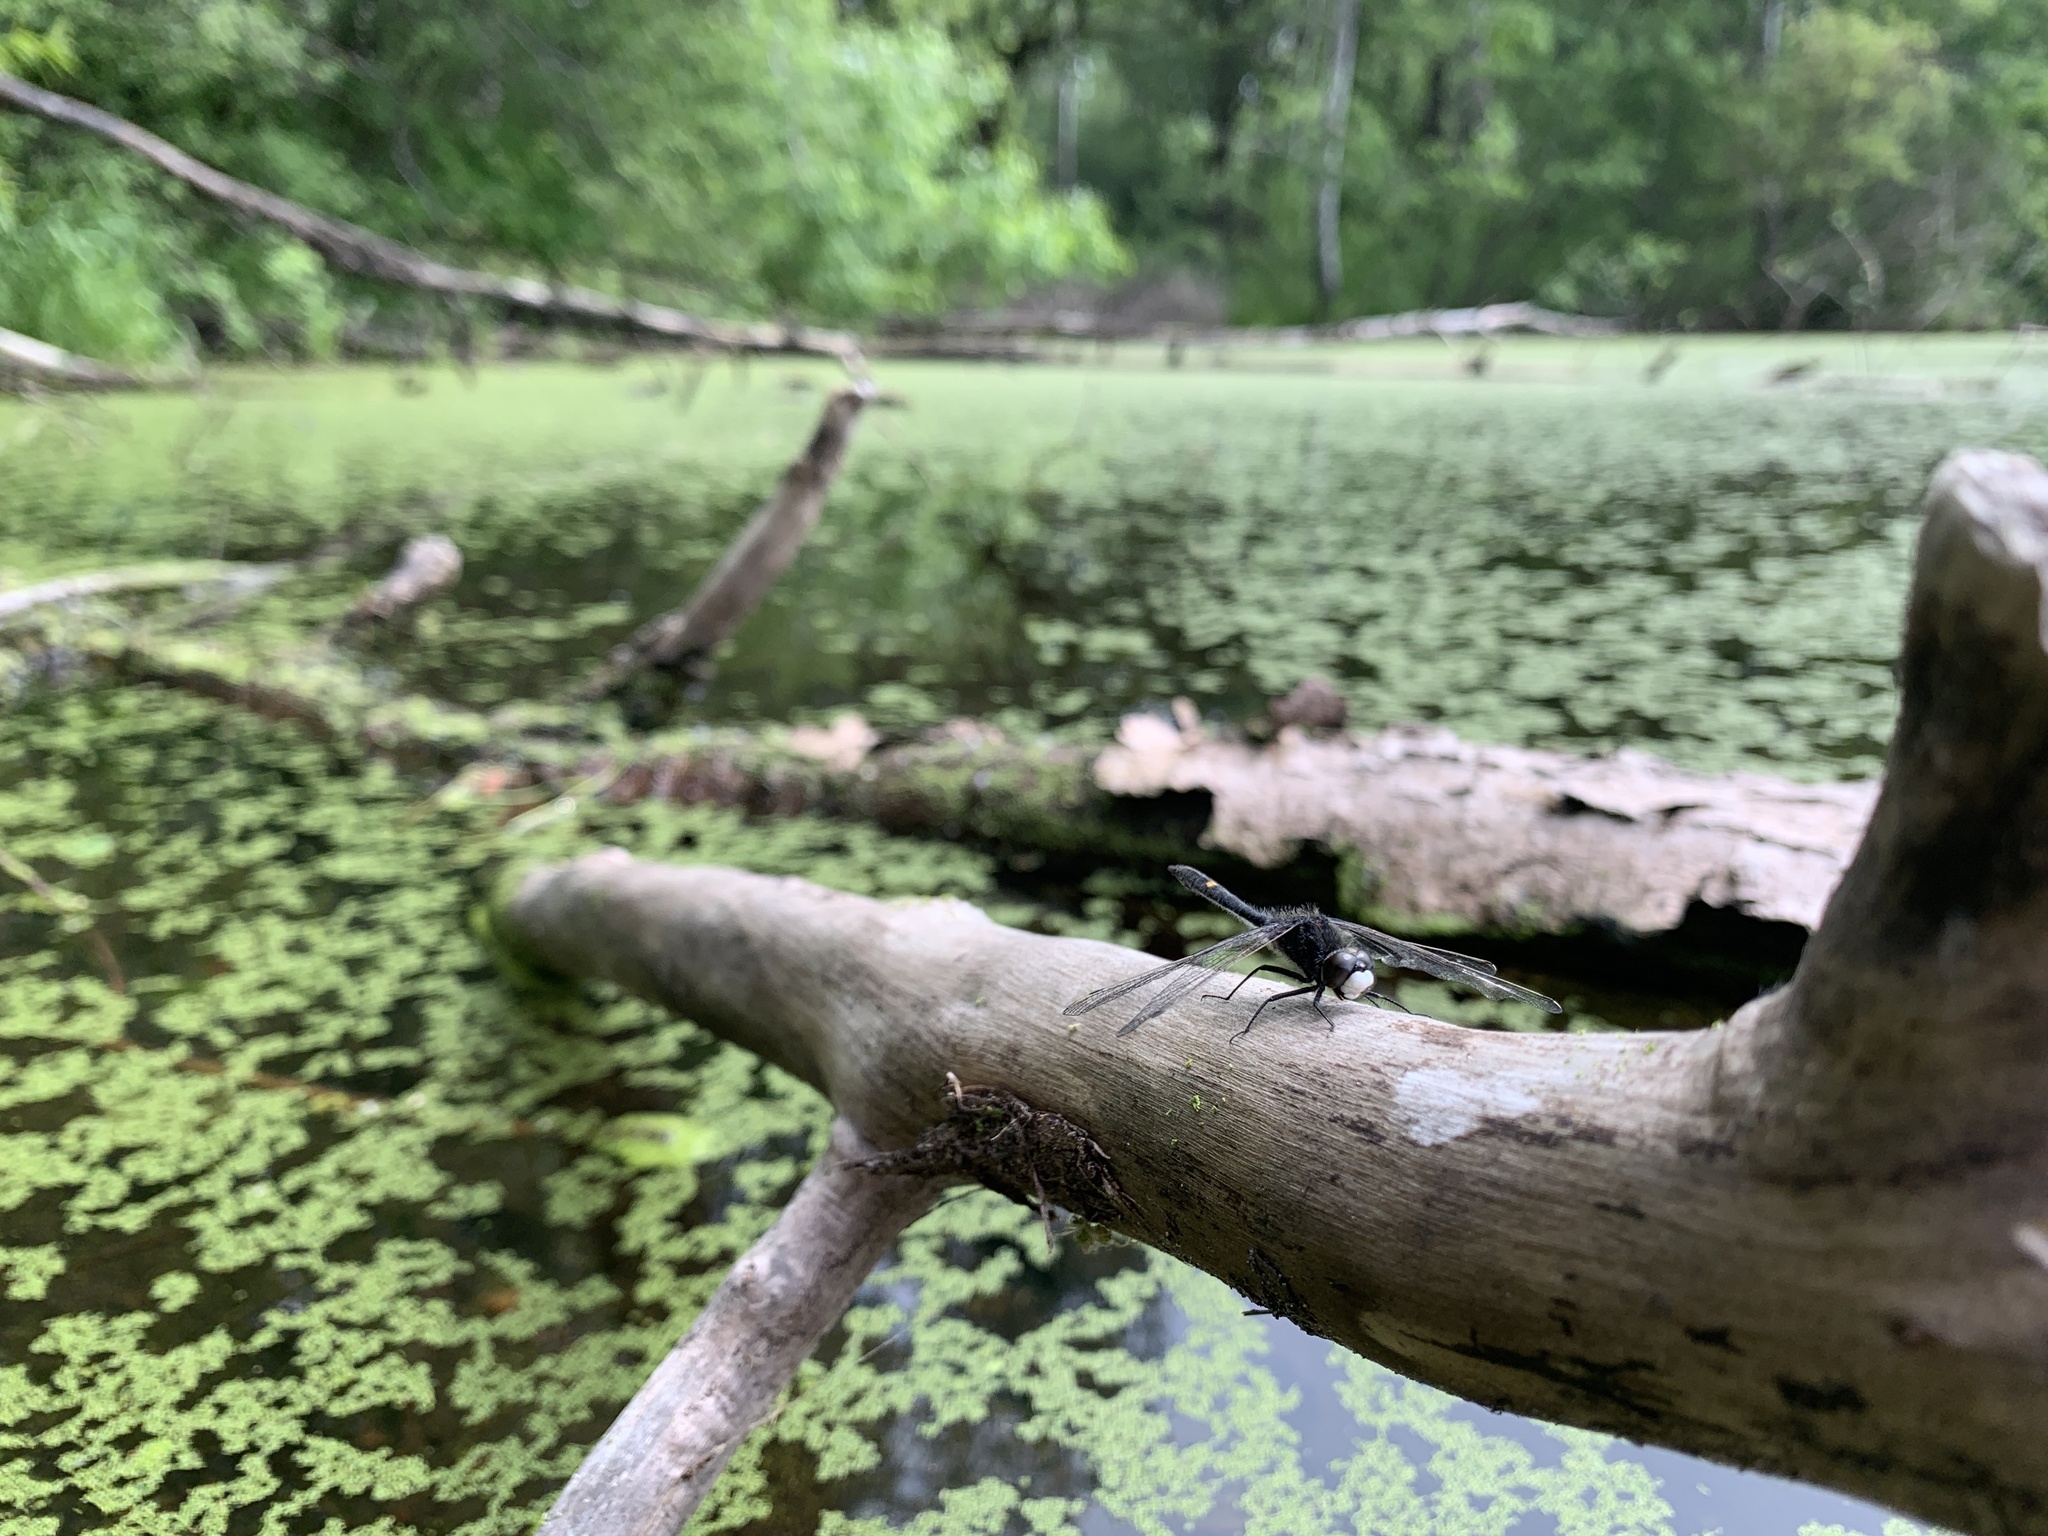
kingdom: Animalia
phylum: Arthropoda
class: Insecta
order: Odonata
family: Libellulidae
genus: Leucorrhinia
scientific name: Leucorrhinia intacta
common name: Dot-tailed whiteface
